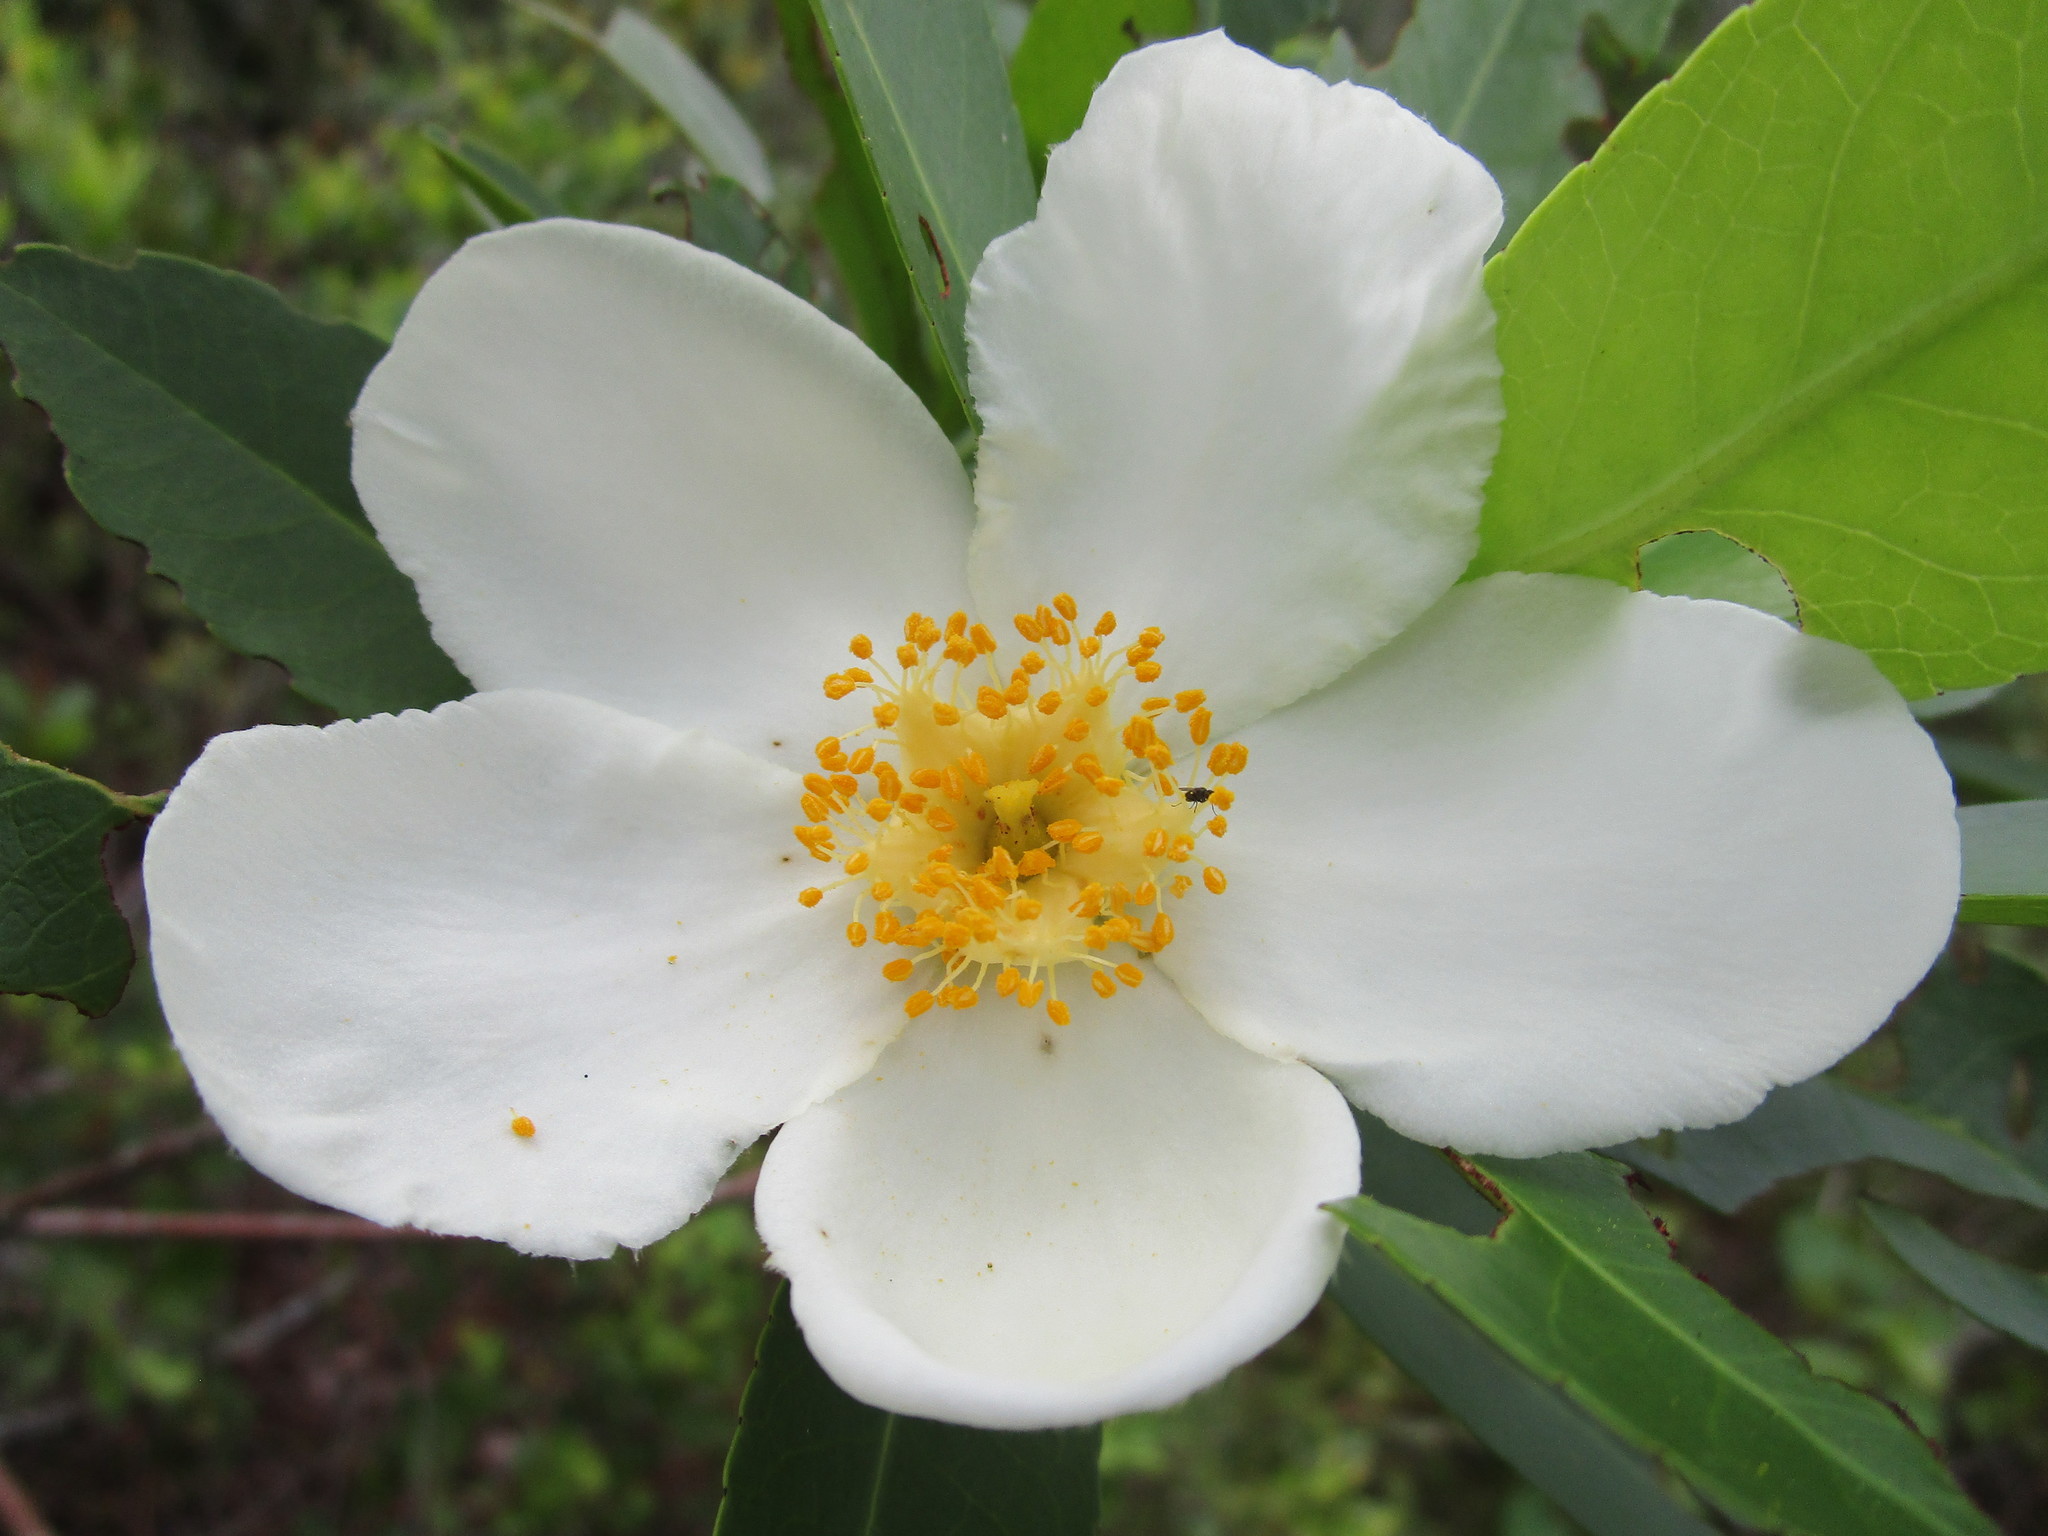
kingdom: Plantae
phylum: Tracheophyta
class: Magnoliopsida
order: Ericales
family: Theaceae
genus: Gordonia
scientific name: Gordonia lasianthus
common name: Loblolly bay
